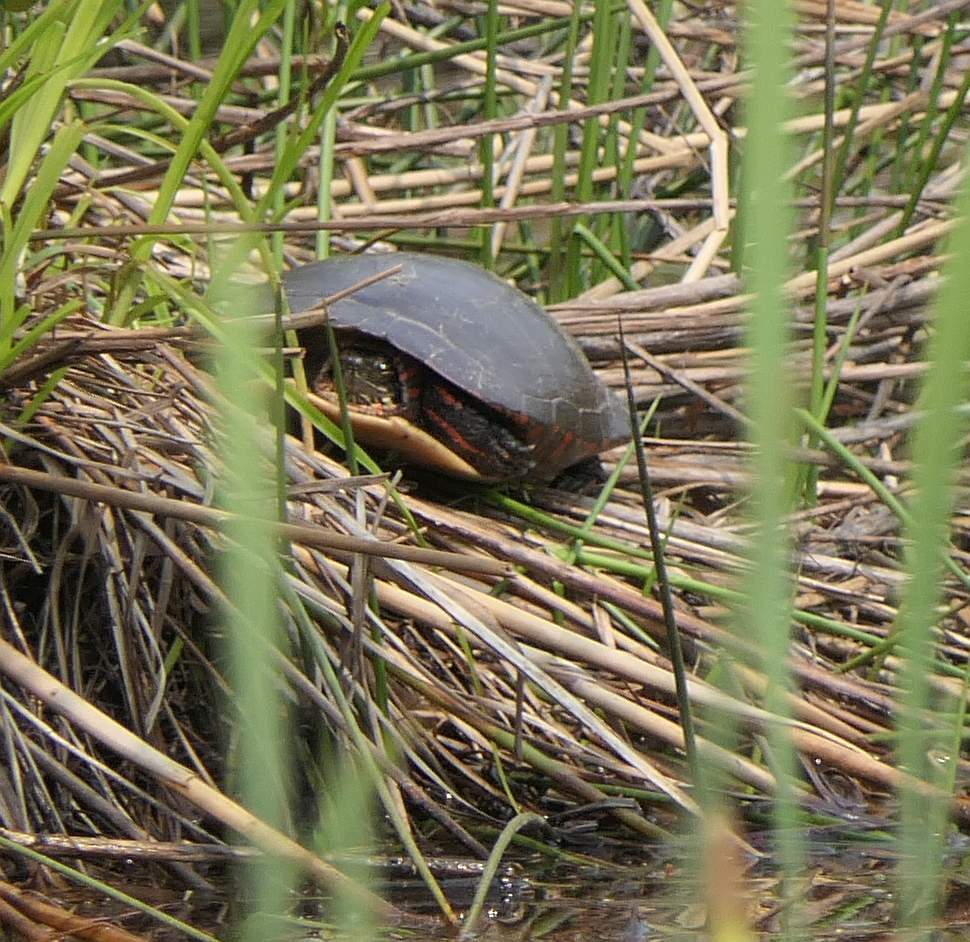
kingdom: Animalia
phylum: Chordata
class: Testudines
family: Emydidae
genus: Chrysemys
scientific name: Chrysemys picta
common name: Painted turtle
